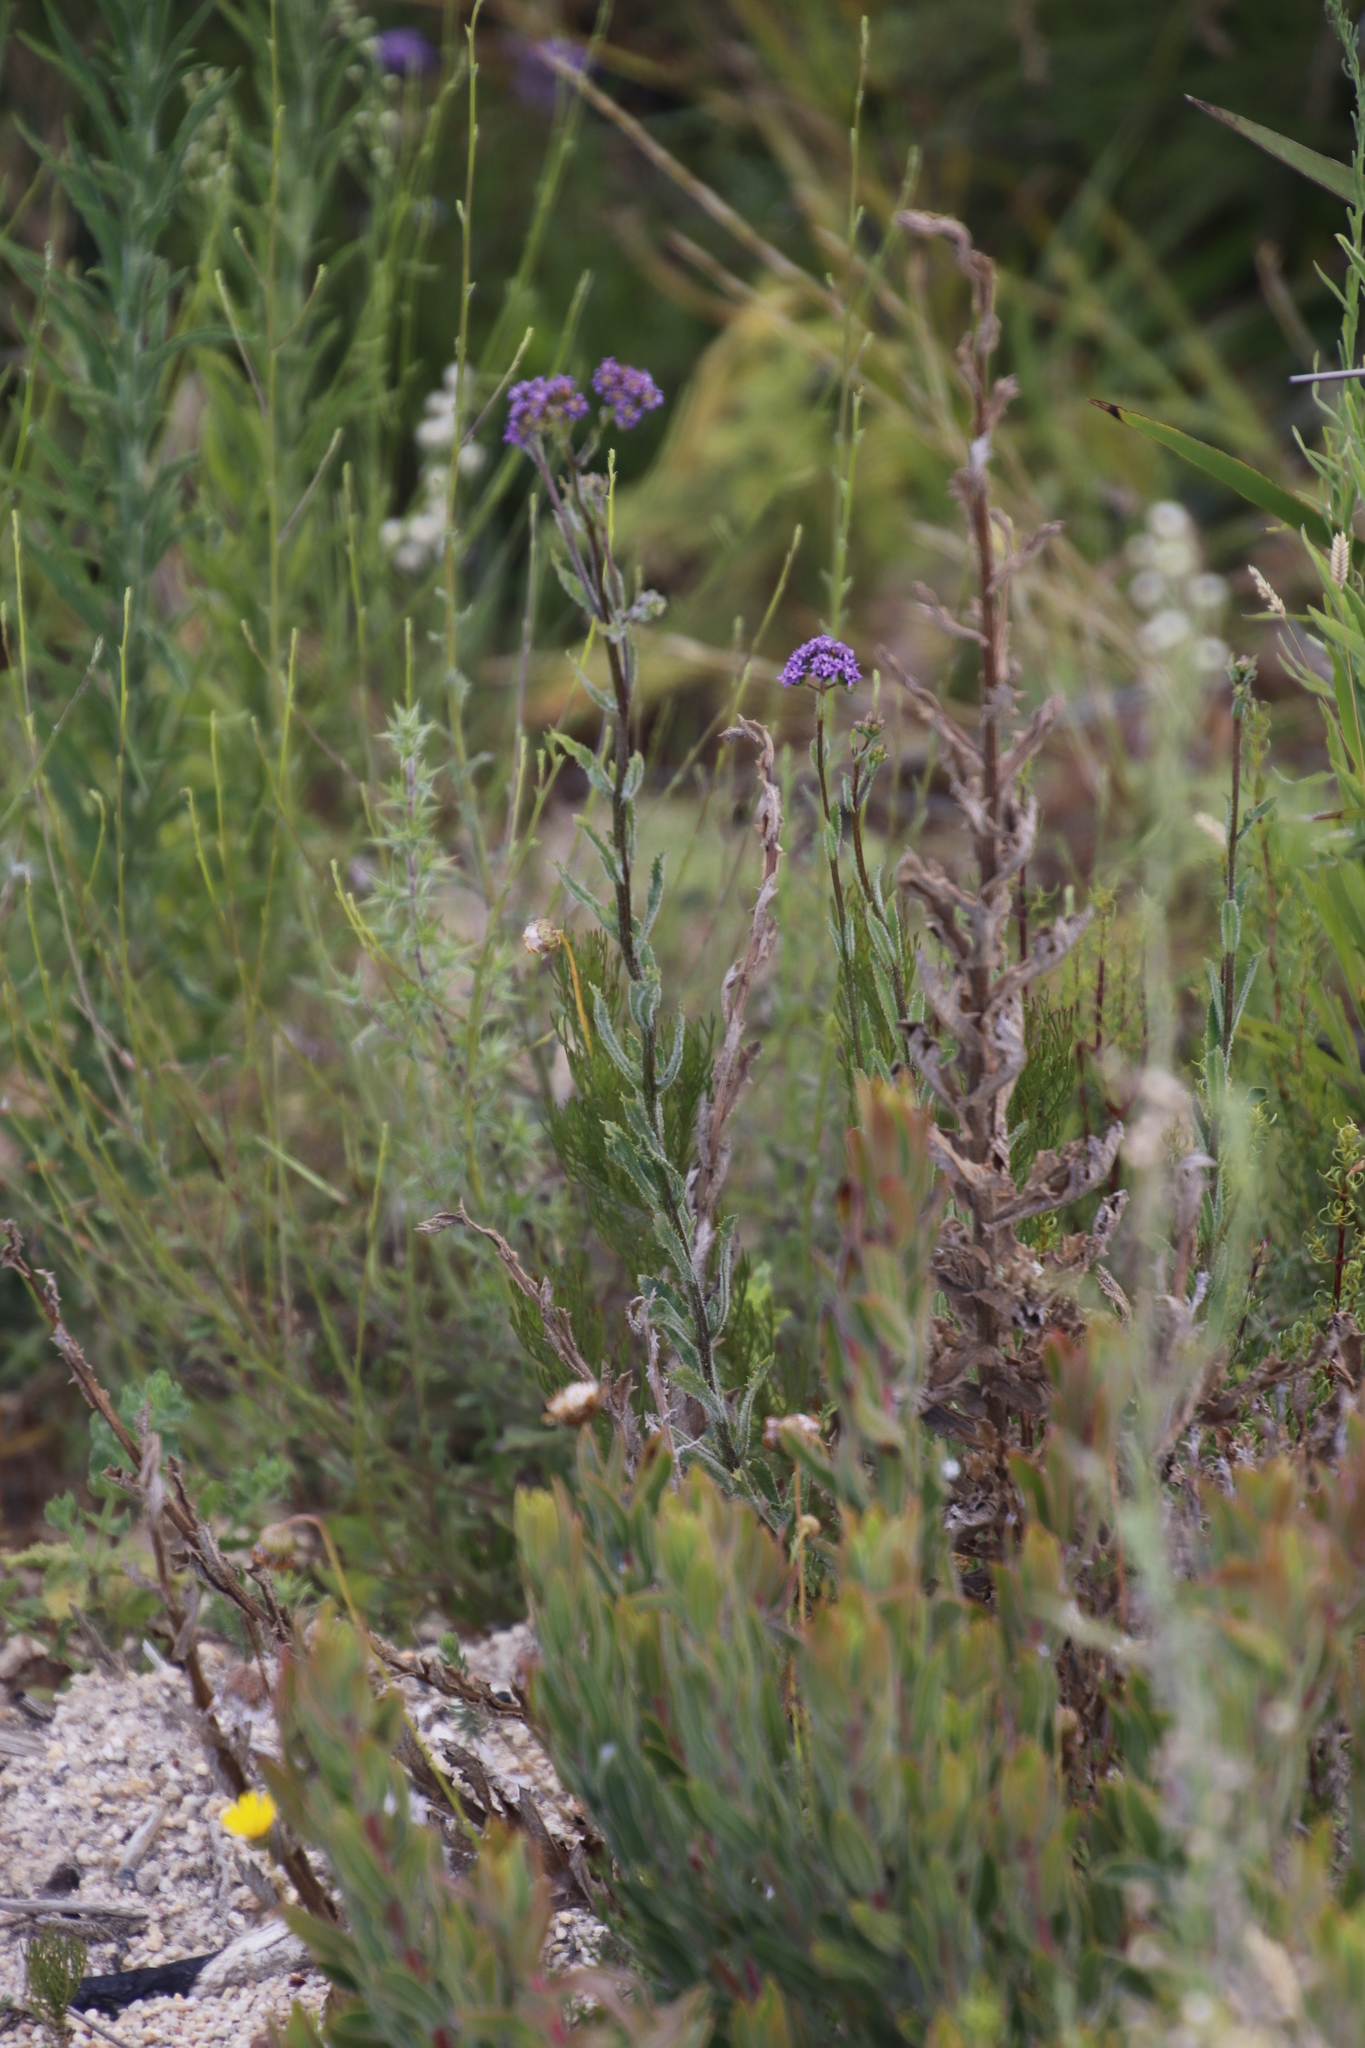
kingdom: Plantae
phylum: Tracheophyta
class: Magnoliopsida
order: Lamiales
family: Scrophulariaceae
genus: Pseudoselago
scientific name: Pseudoselago verbenacea
